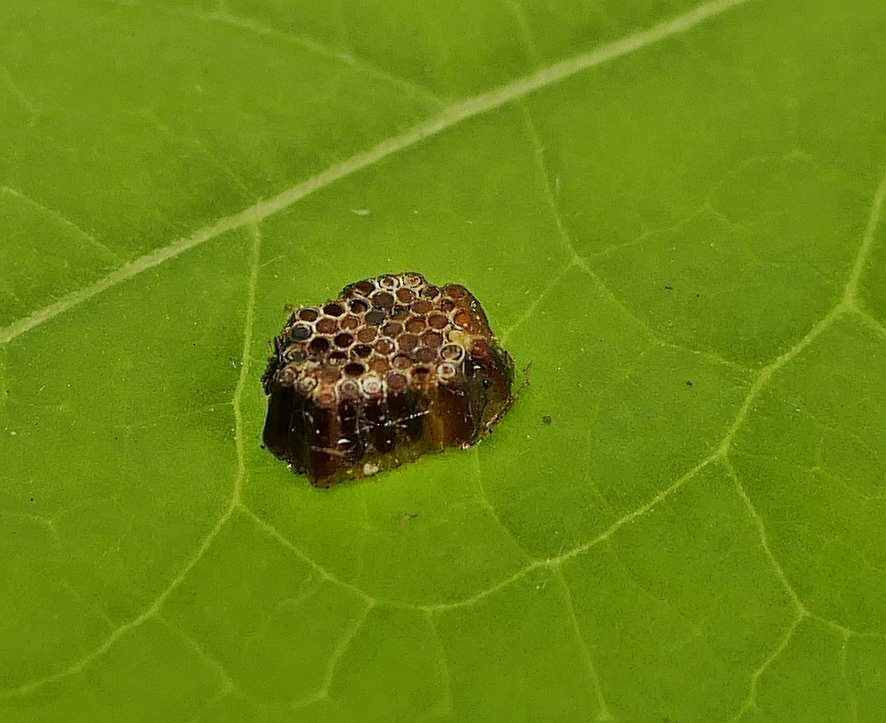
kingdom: Animalia
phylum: Arthropoda
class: Insecta
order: Hemiptera
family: Reduviidae
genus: Zelus
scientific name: Zelus luridus
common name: Pale green assassin bug
